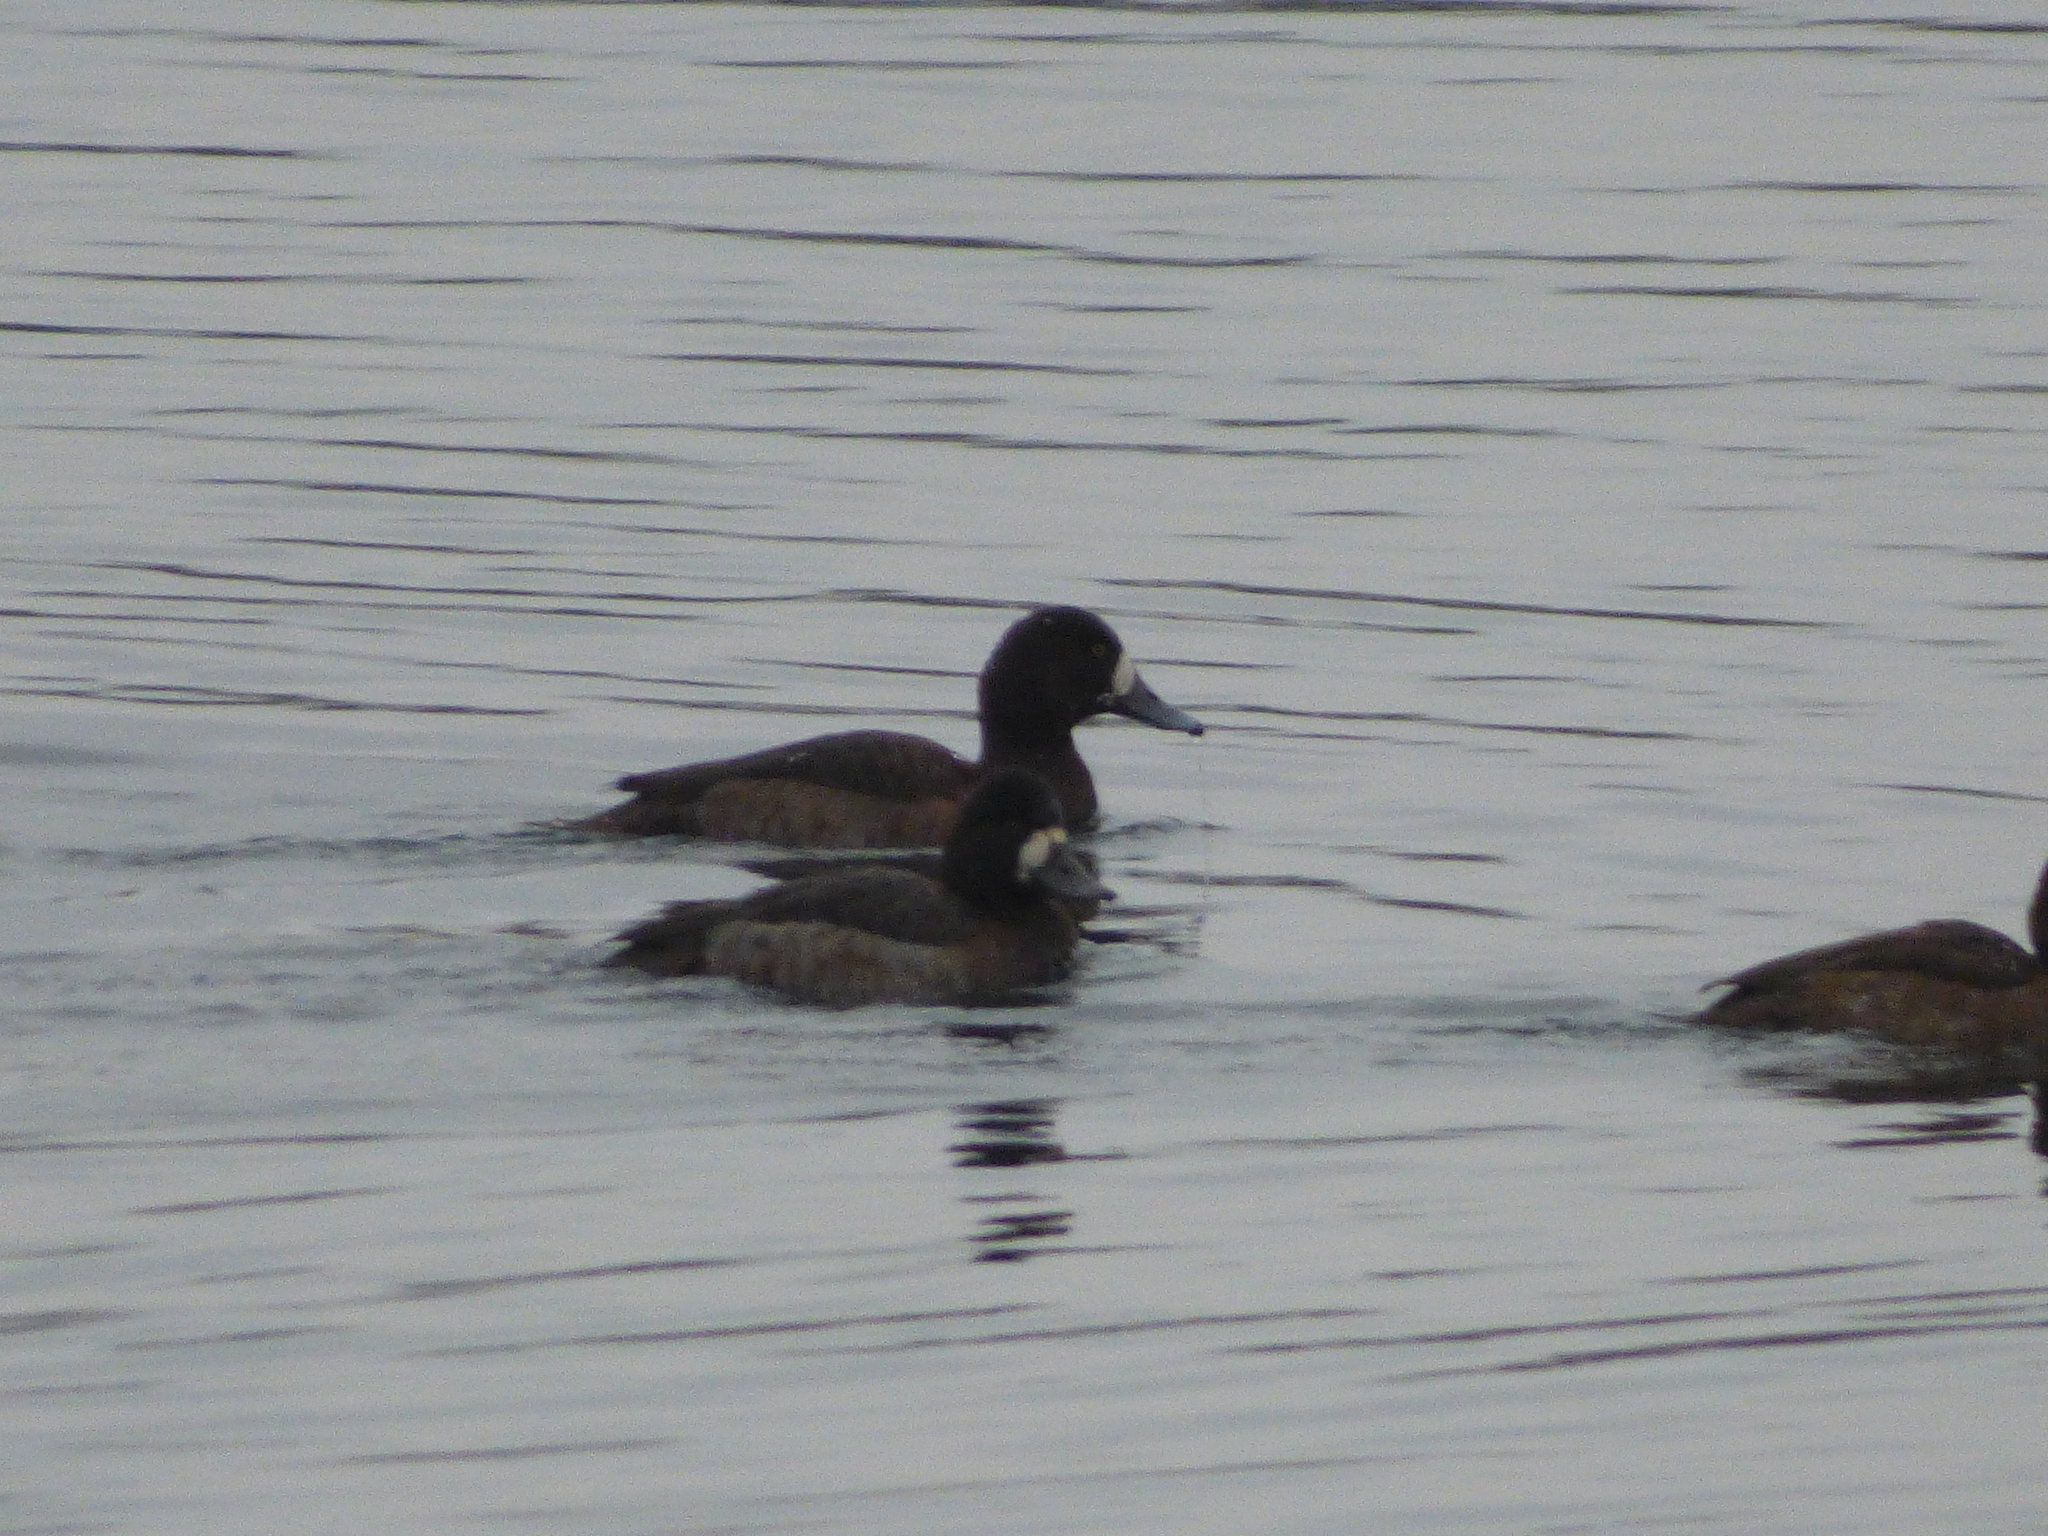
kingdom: Animalia
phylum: Chordata
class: Aves
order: Anseriformes
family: Anatidae
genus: Aythya
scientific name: Aythya marila
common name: Greater scaup
